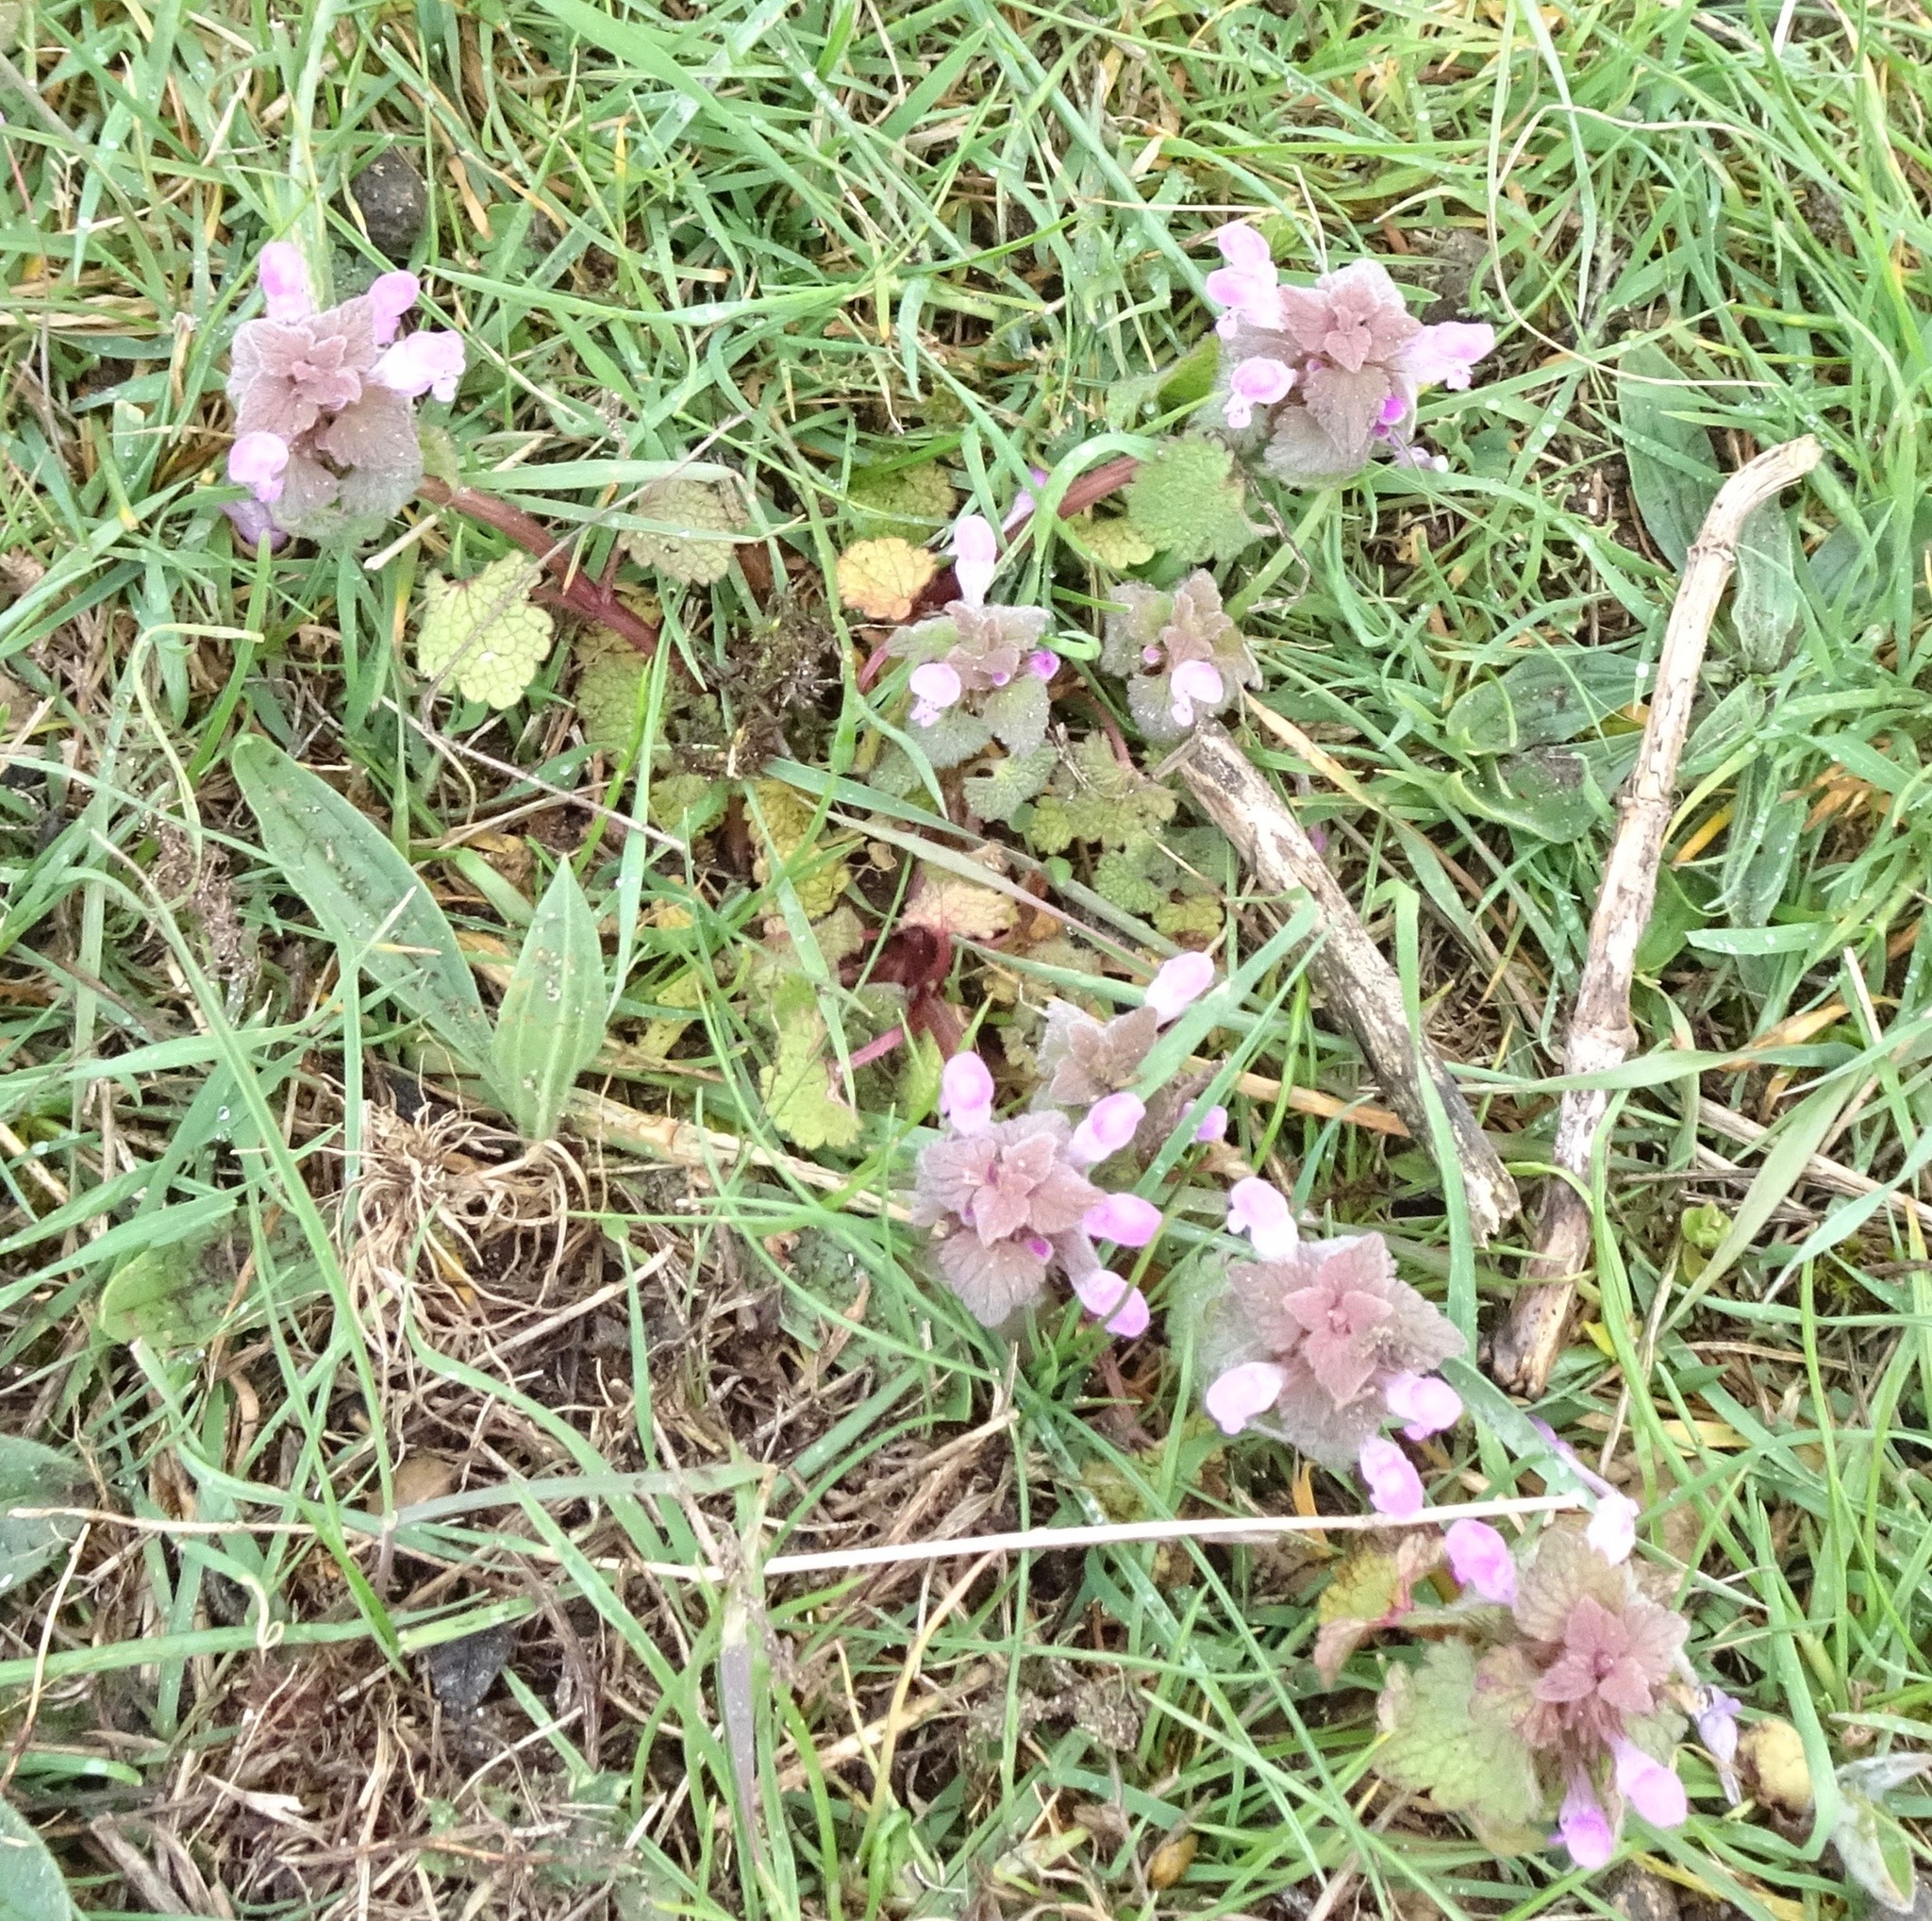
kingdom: Plantae
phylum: Tracheophyta
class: Magnoliopsida
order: Lamiales
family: Lamiaceae
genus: Lamium
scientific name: Lamium purpureum
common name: Red dead-nettle
